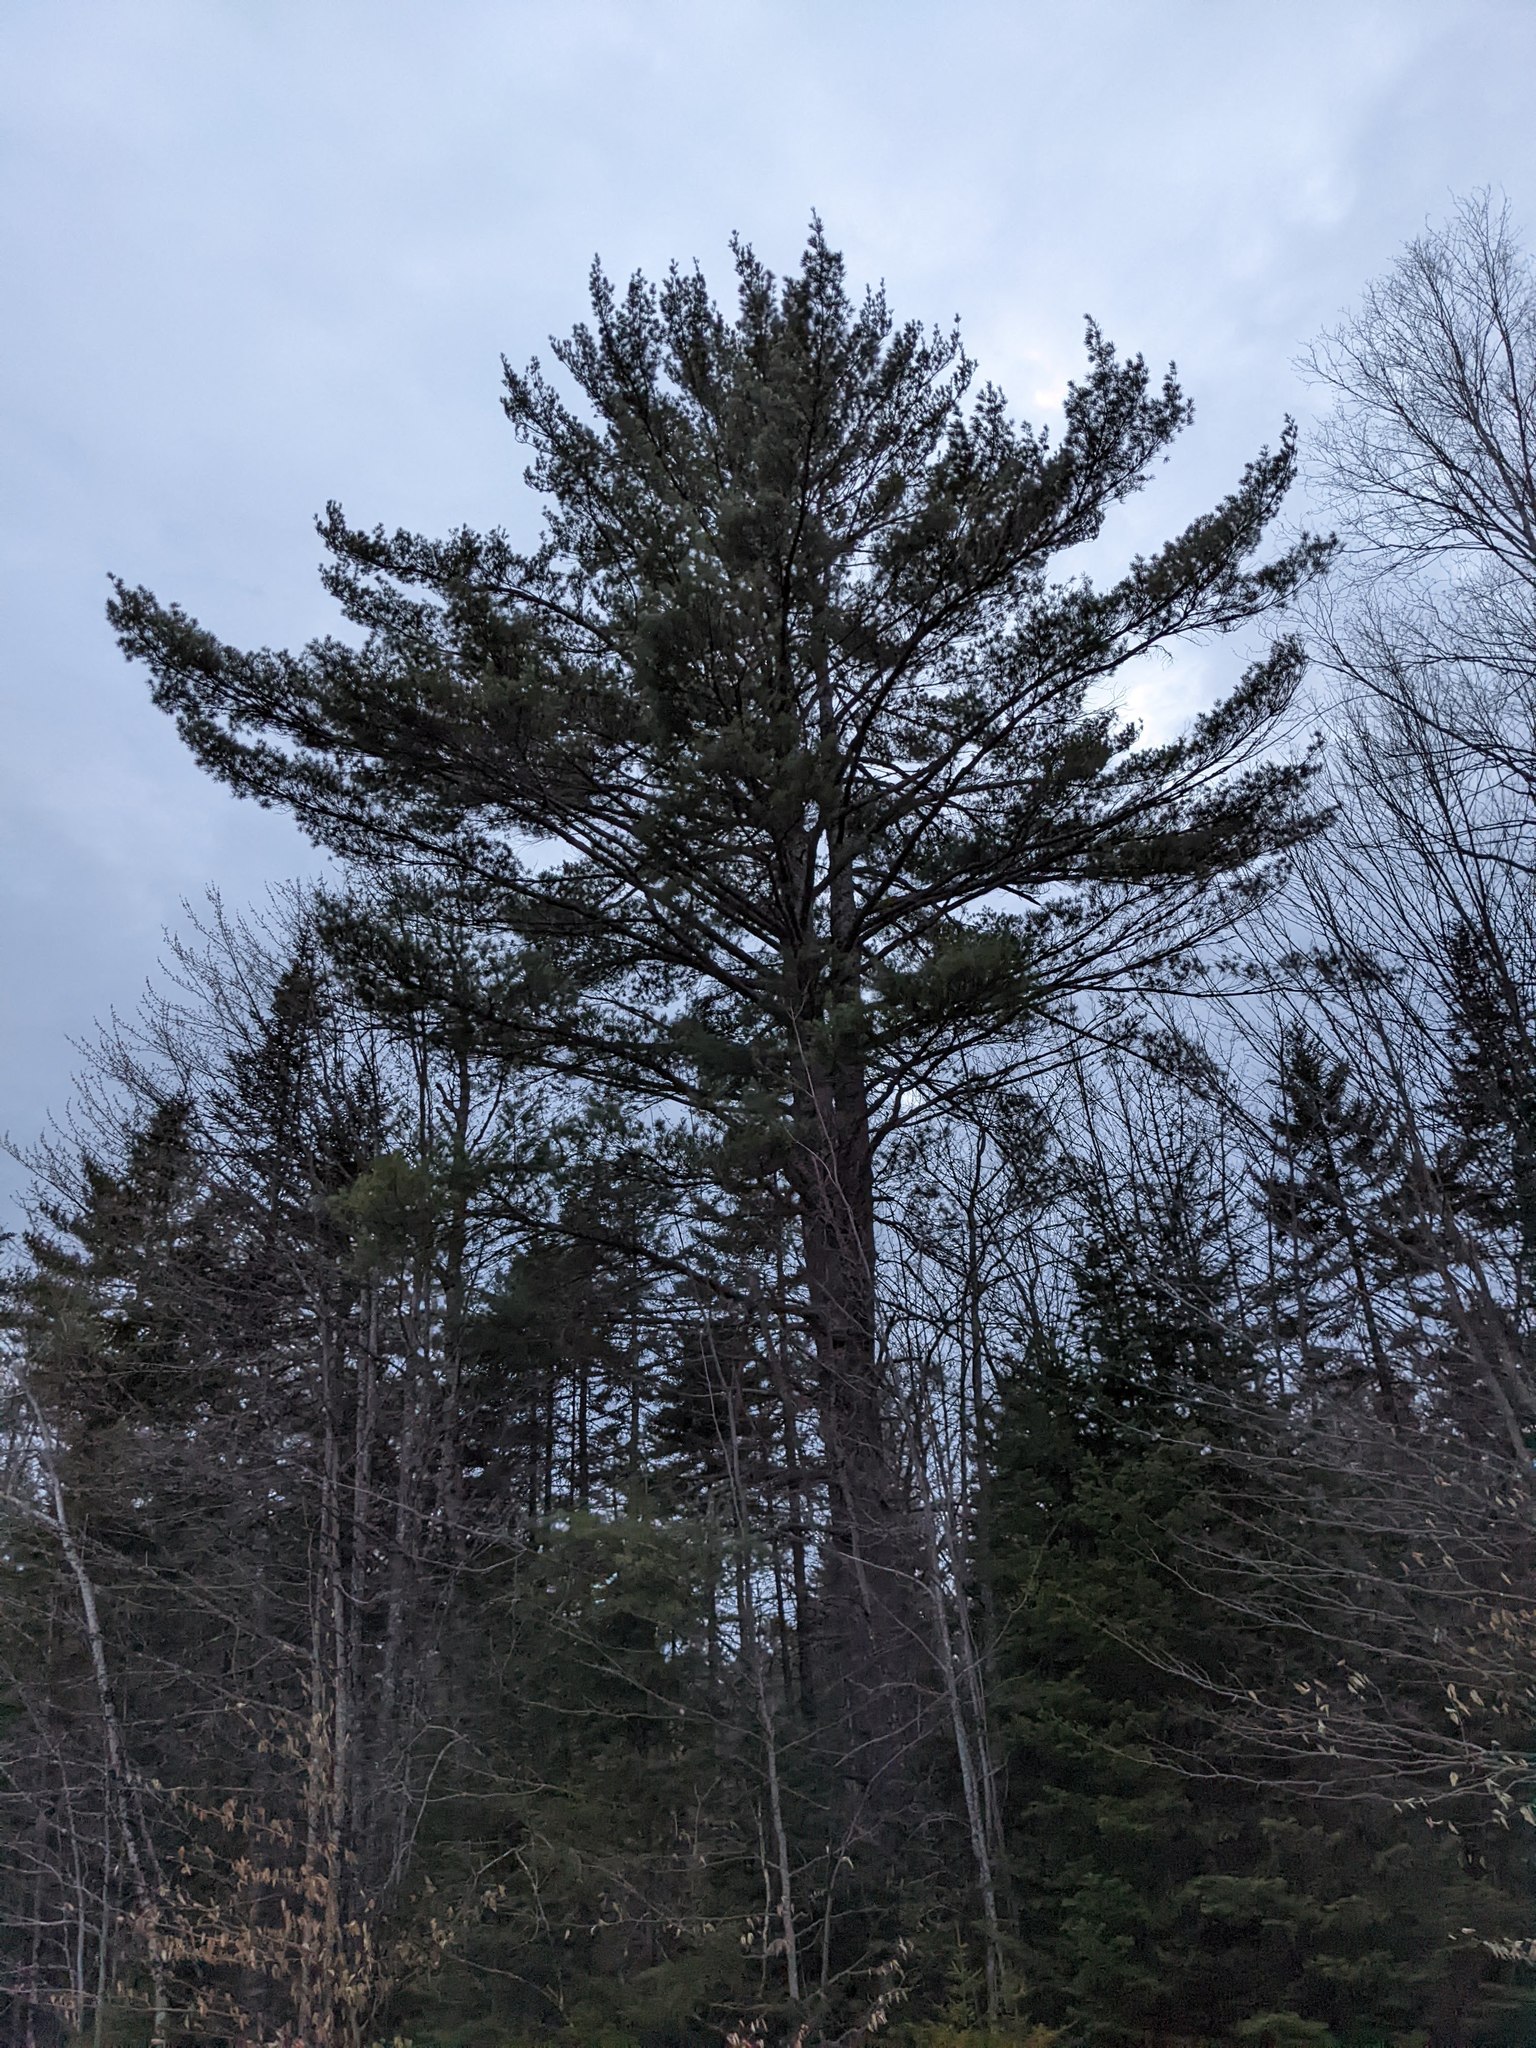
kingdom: Plantae
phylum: Tracheophyta
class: Pinopsida
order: Pinales
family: Pinaceae
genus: Pinus
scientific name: Pinus strobus
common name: Weymouth pine
